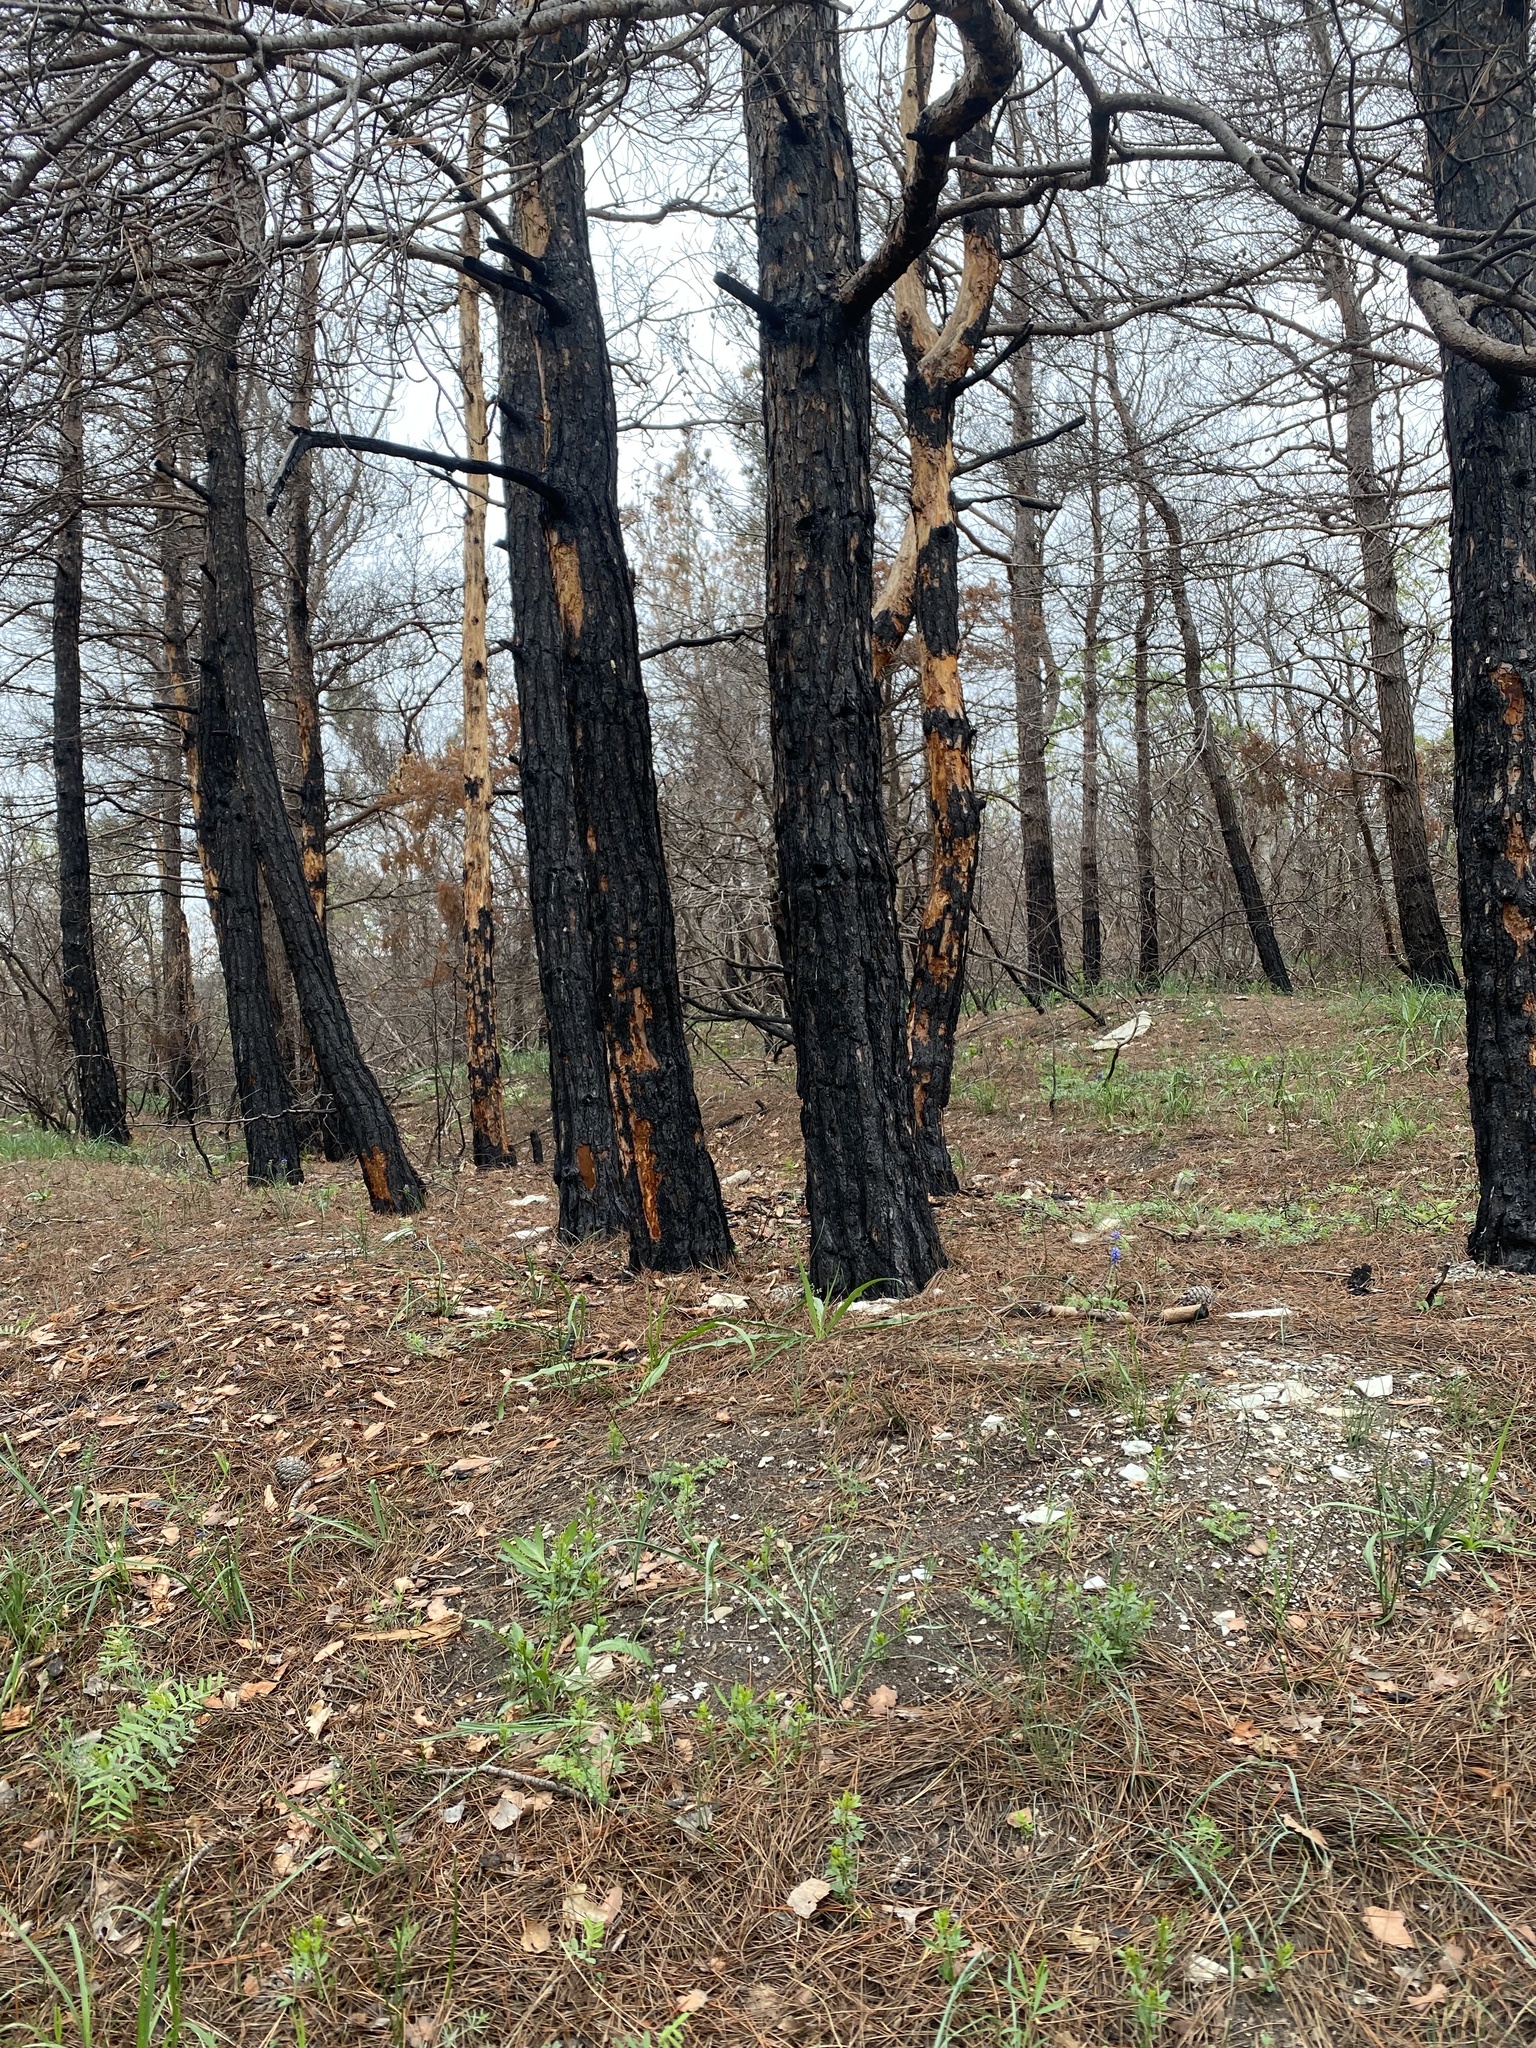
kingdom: Plantae
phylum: Tracheophyta
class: Pinopsida
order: Pinales
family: Pinaceae
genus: Pinus
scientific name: Pinus brutia
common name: Turkish pine
